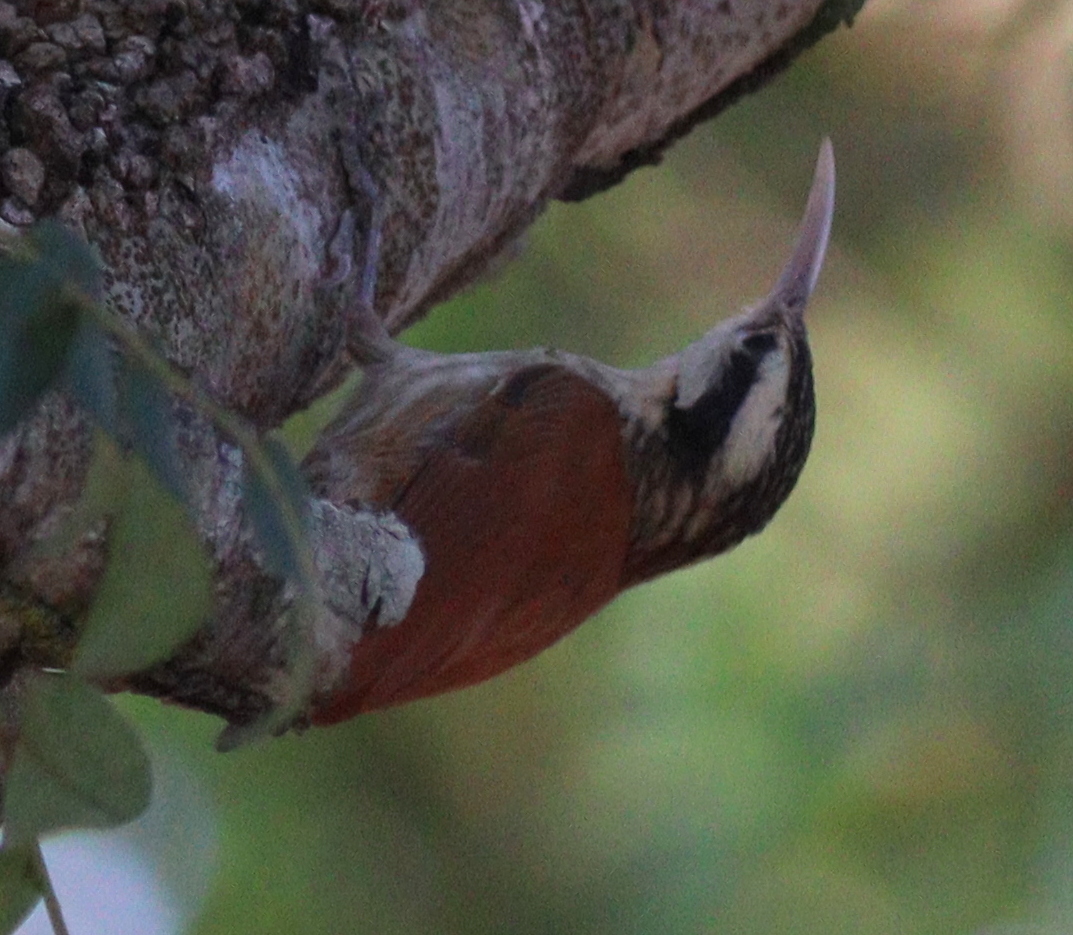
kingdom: Animalia
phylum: Chordata
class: Aves
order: Passeriformes
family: Furnariidae
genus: Lepidocolaptes
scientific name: Lepidocolaptes angustirostris
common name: Narrow-billed woodcreeper
